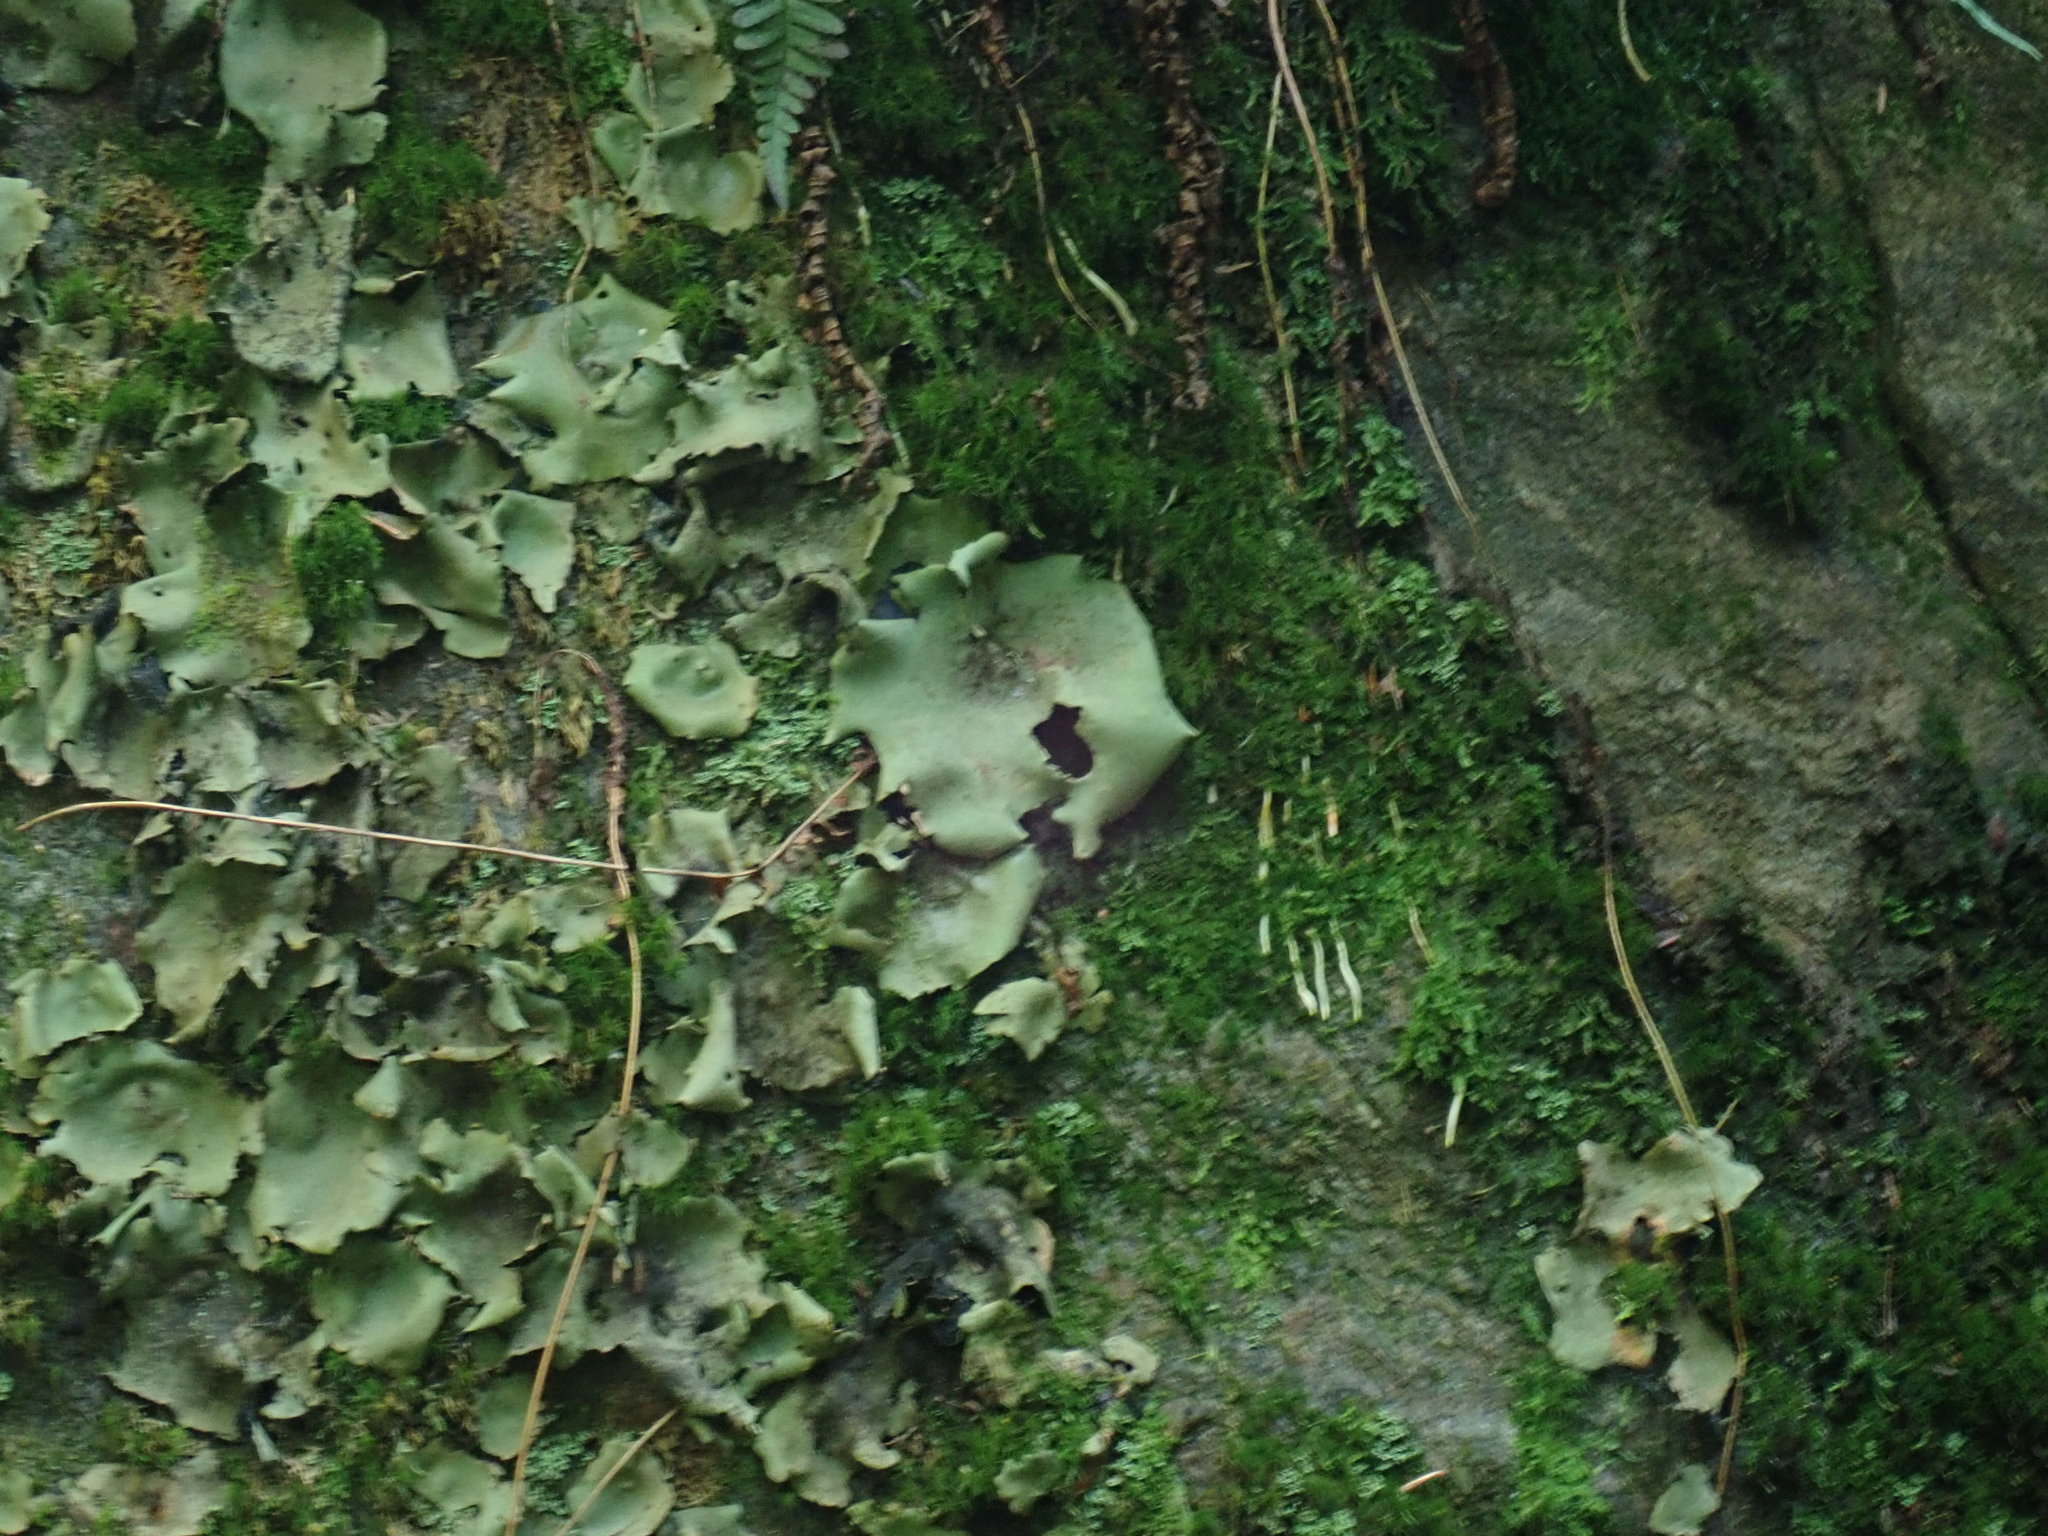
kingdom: Fungi
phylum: Ascomycota
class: Lecanoromycetes
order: Umbilicariales
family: Umbilicariaceae
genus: Umbilicaria
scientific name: Umbilicaria mammulata
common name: Smooth rock tripe
